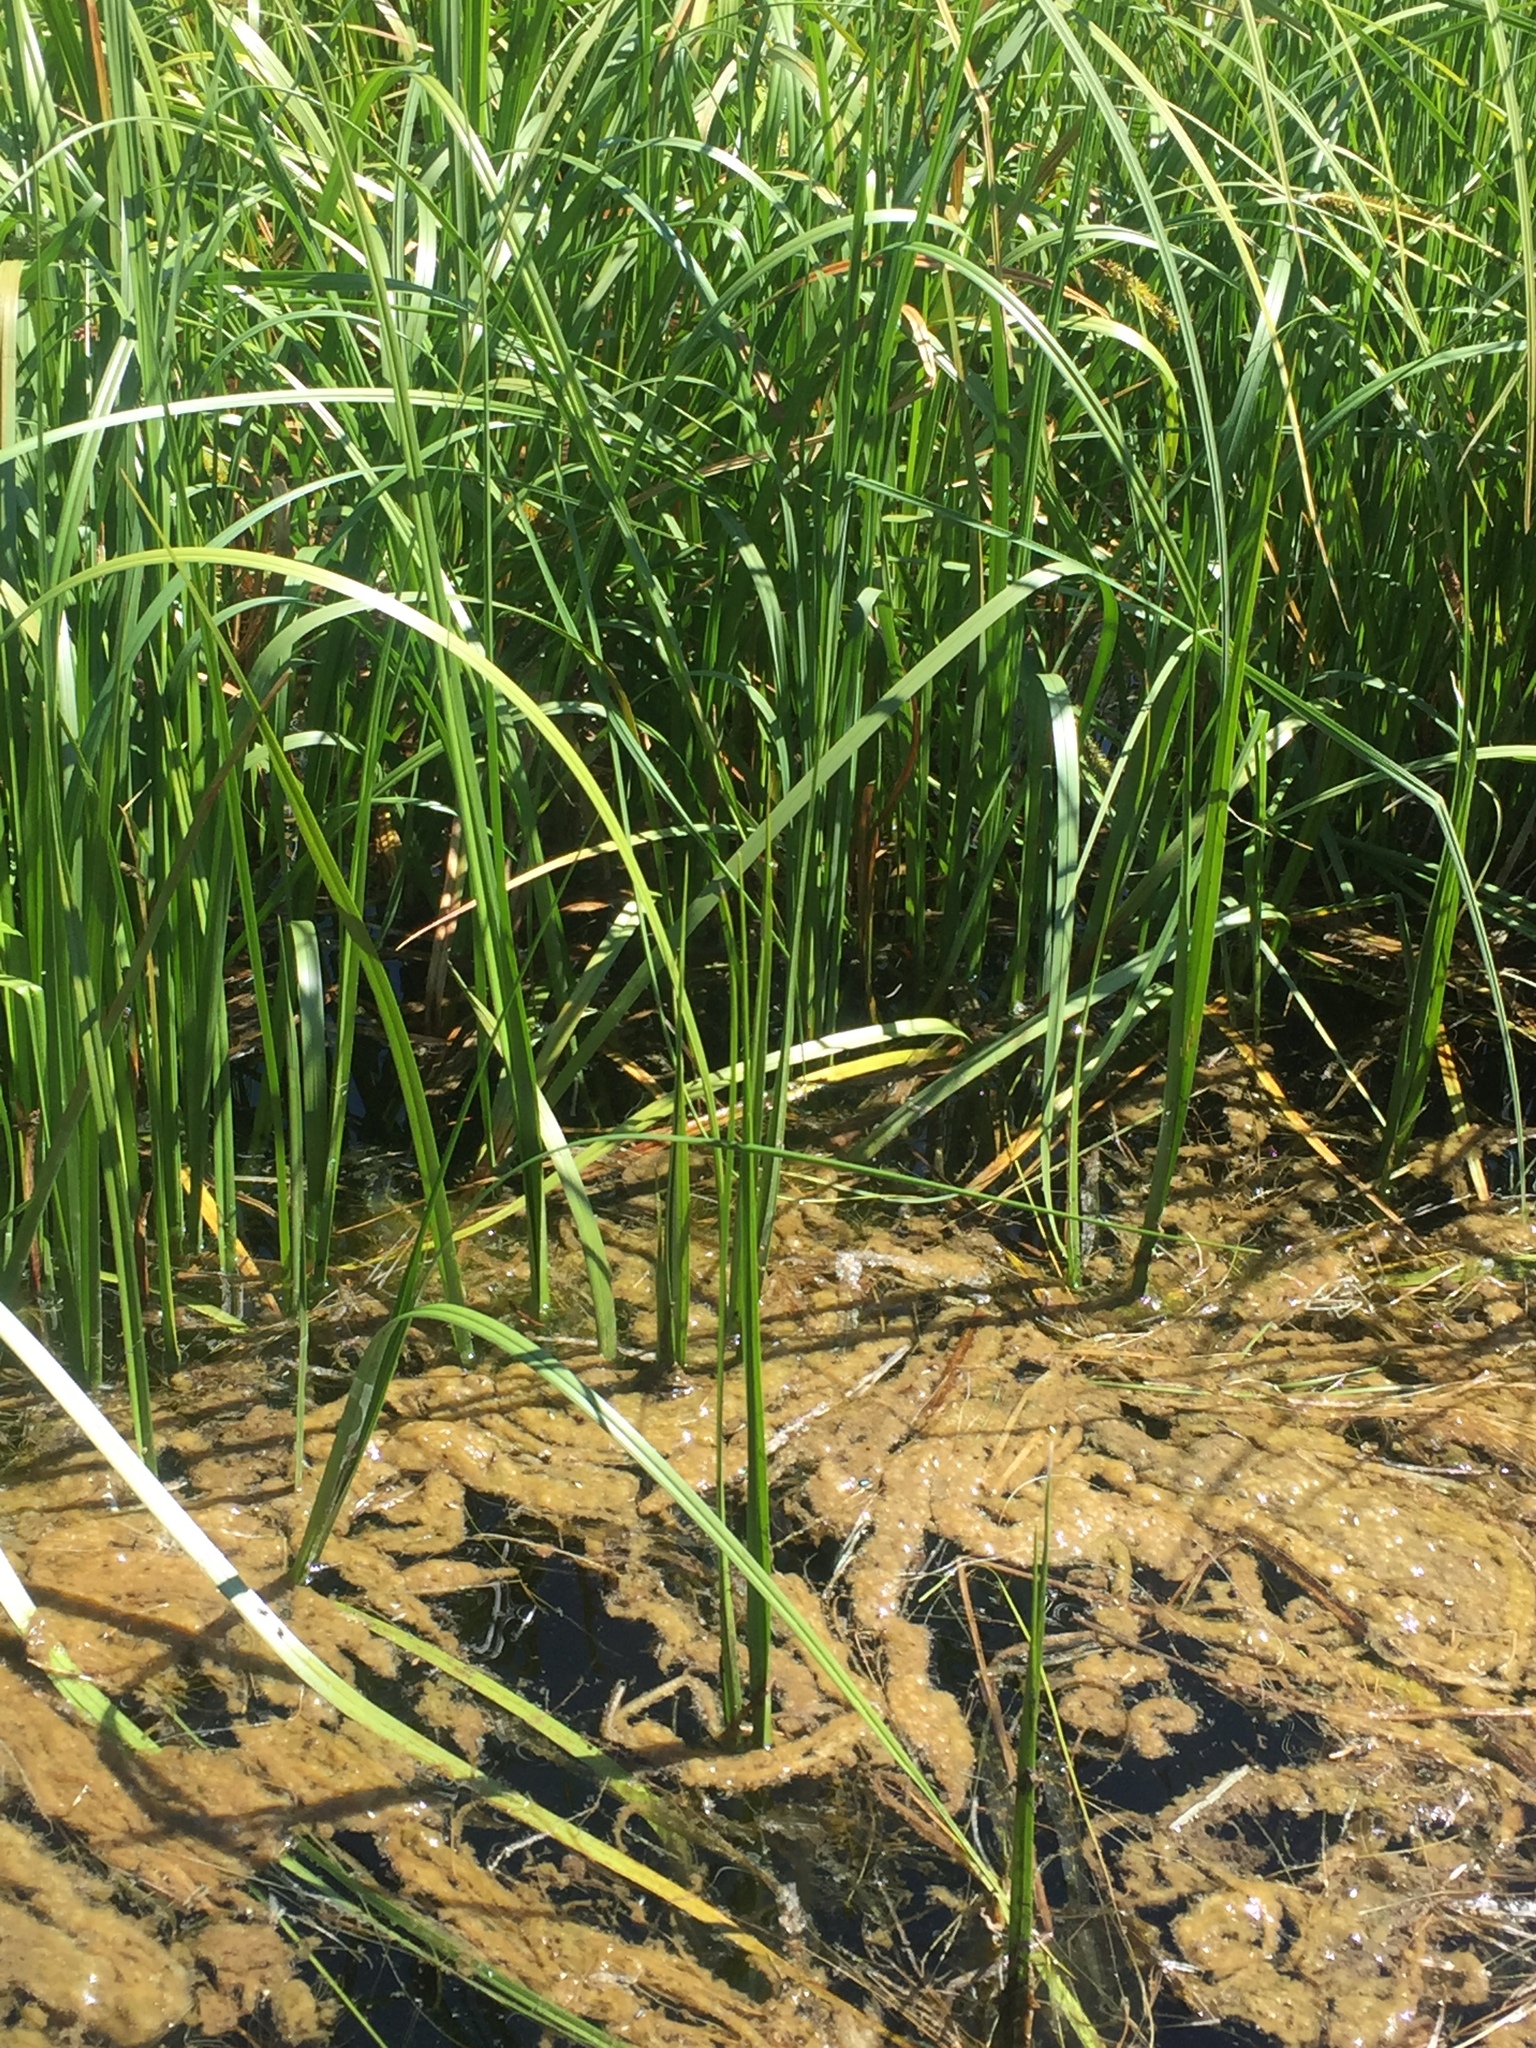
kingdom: Plantae
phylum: Tracheophyta
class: Liliopsida
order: Poales
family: Cyperaceae
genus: Carex
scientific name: Carex utriculata
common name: Beaked sedge
